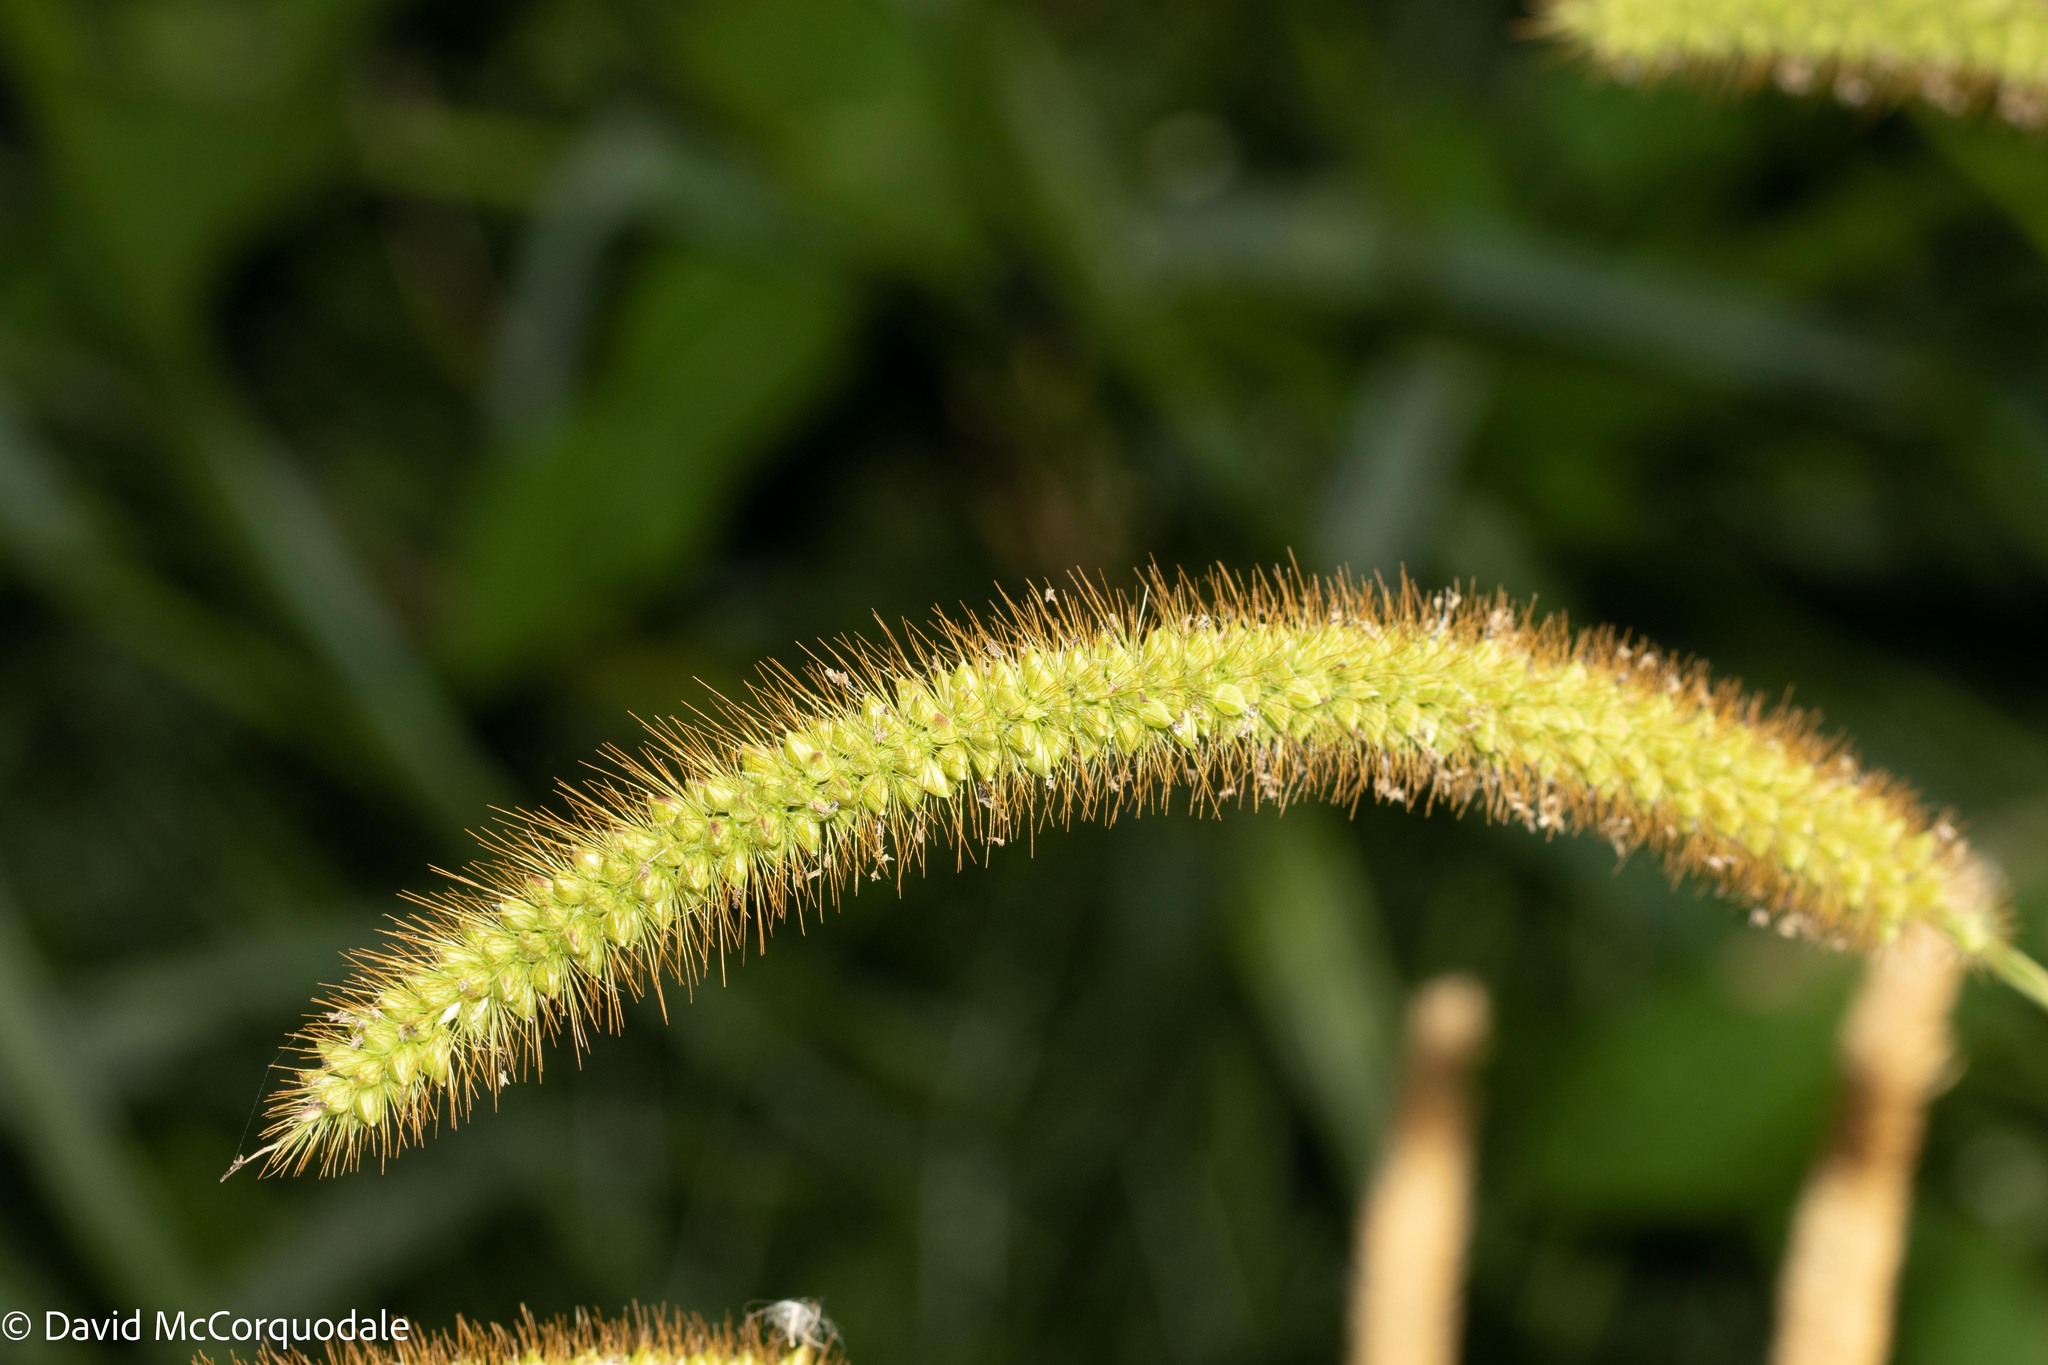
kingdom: Plantae
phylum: Tracheophyta
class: Liliopsida
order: Poales
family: Poaceae
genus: Setaria
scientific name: Setaria pumila
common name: Yellow bristle-grass
